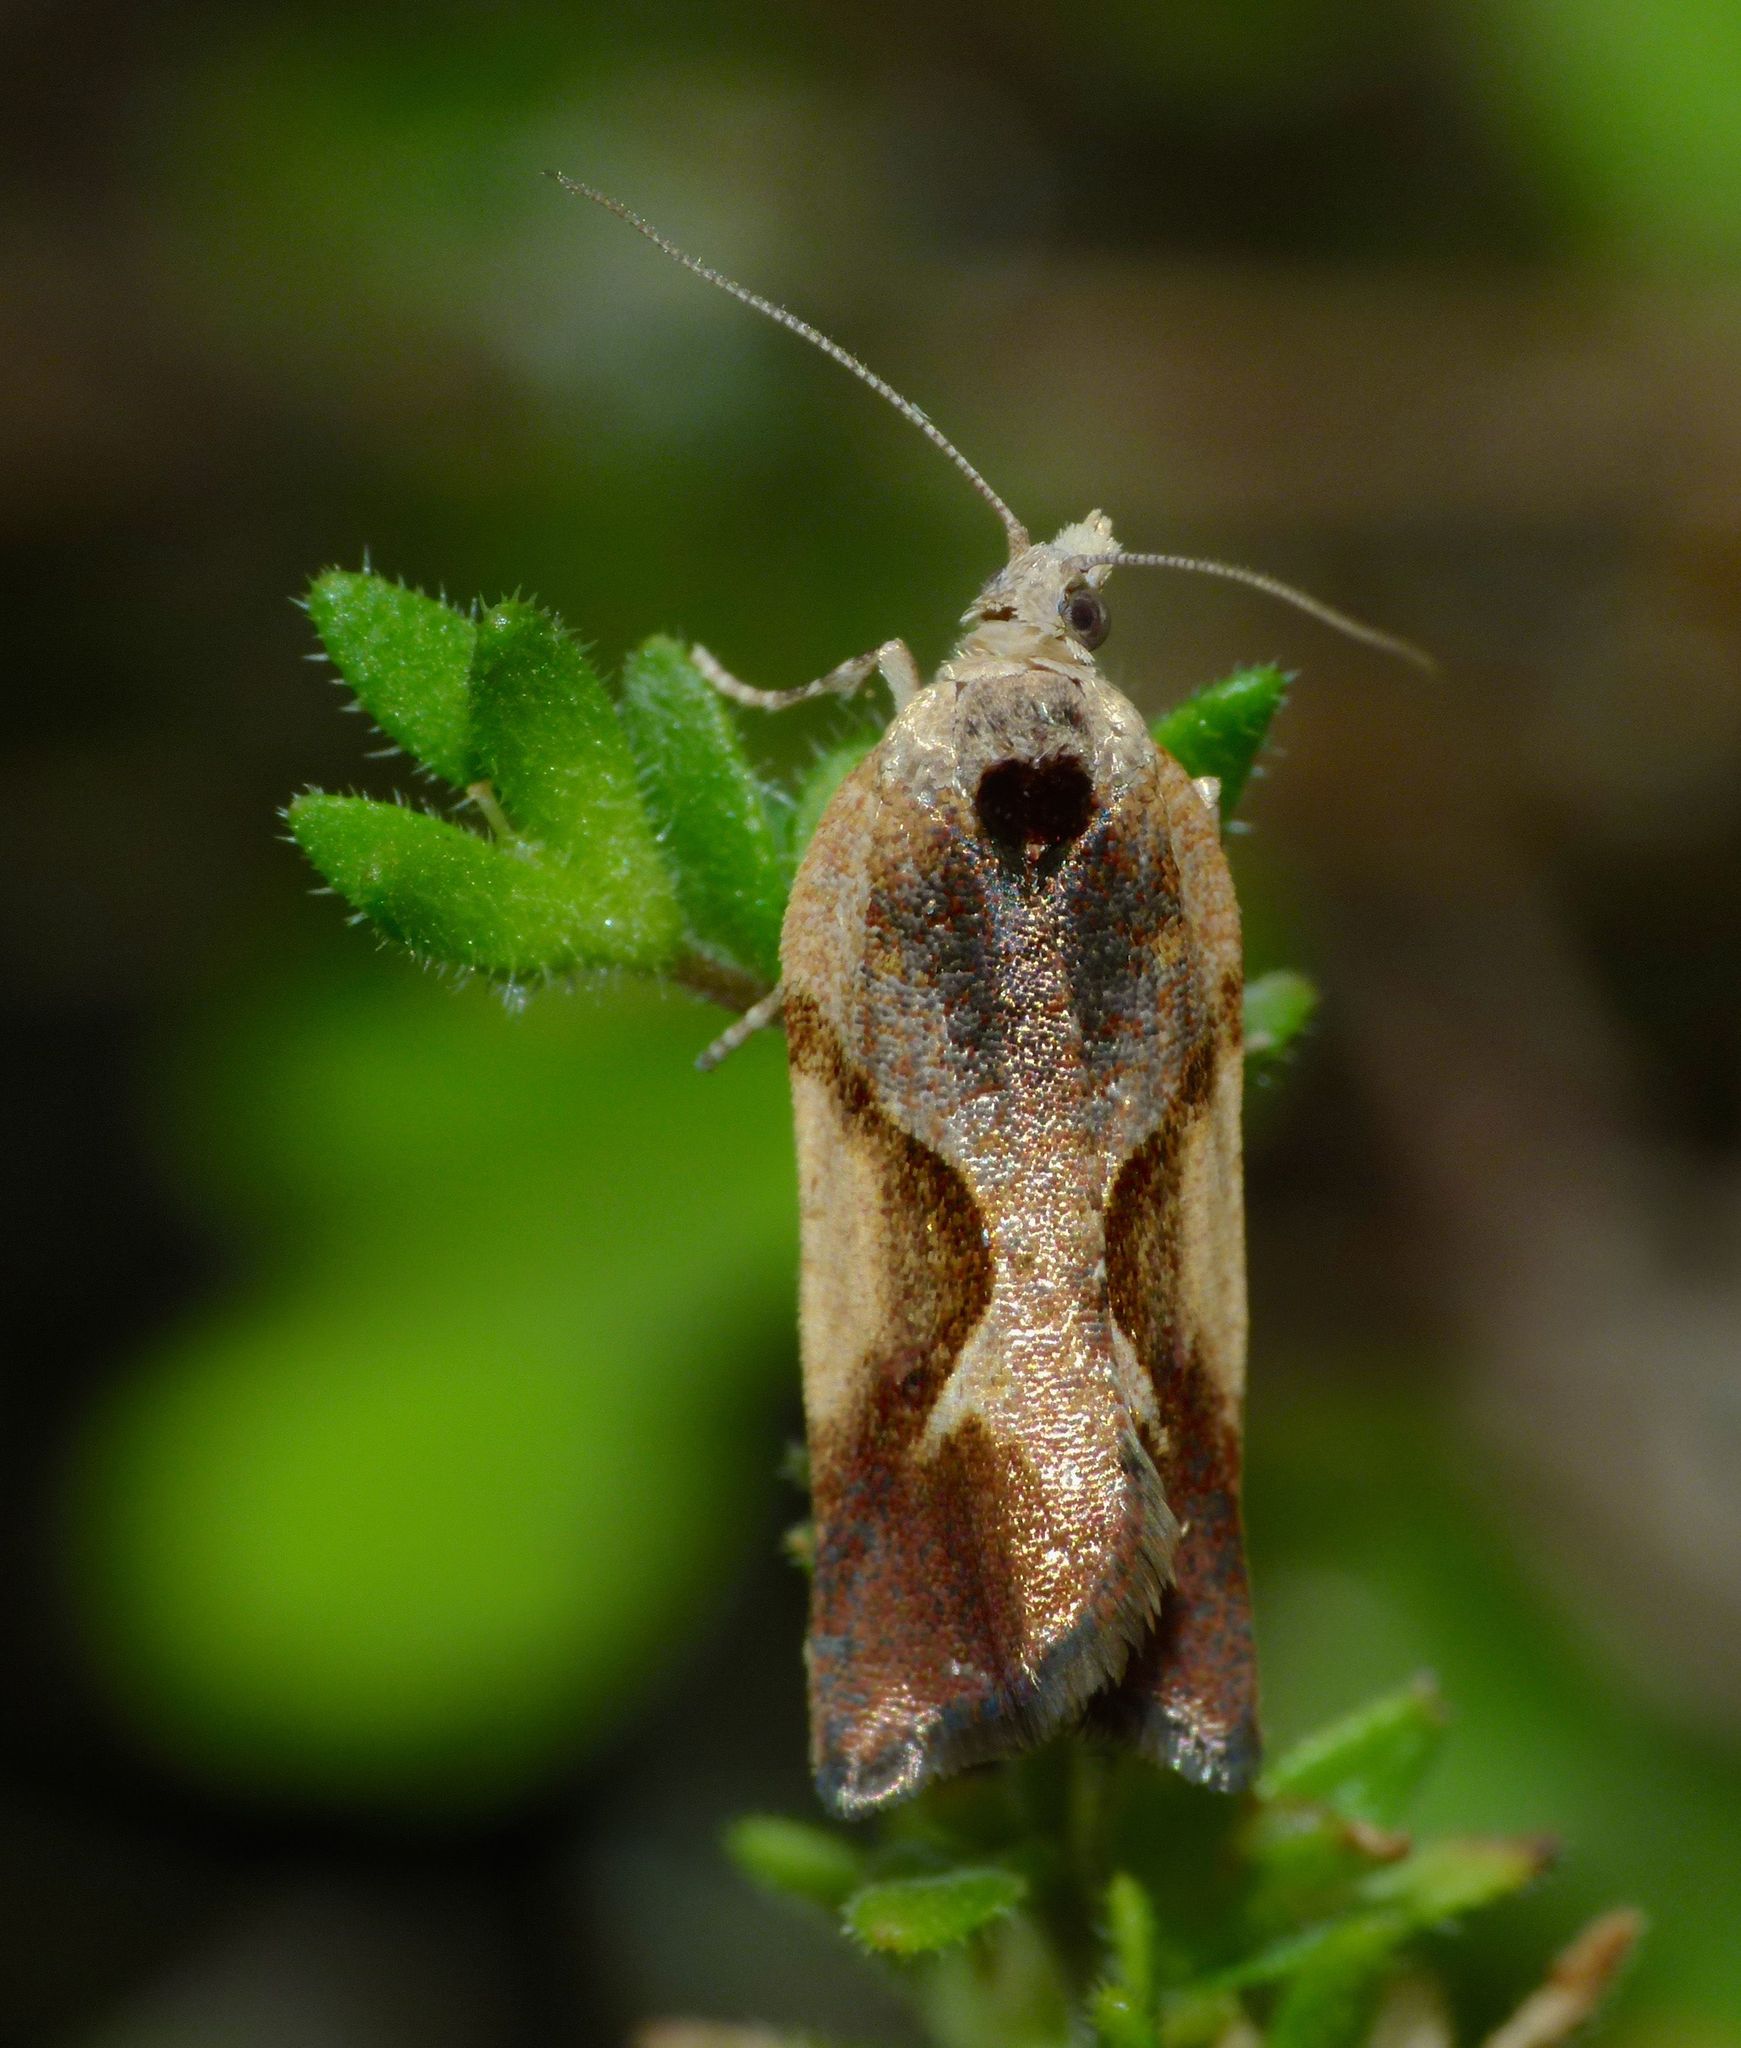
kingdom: Animalia
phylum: Arthropoda
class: Insecta
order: Lepidoptera
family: Tortricidae
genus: Pyrgotis
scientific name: Pyrgotis plagiatana
